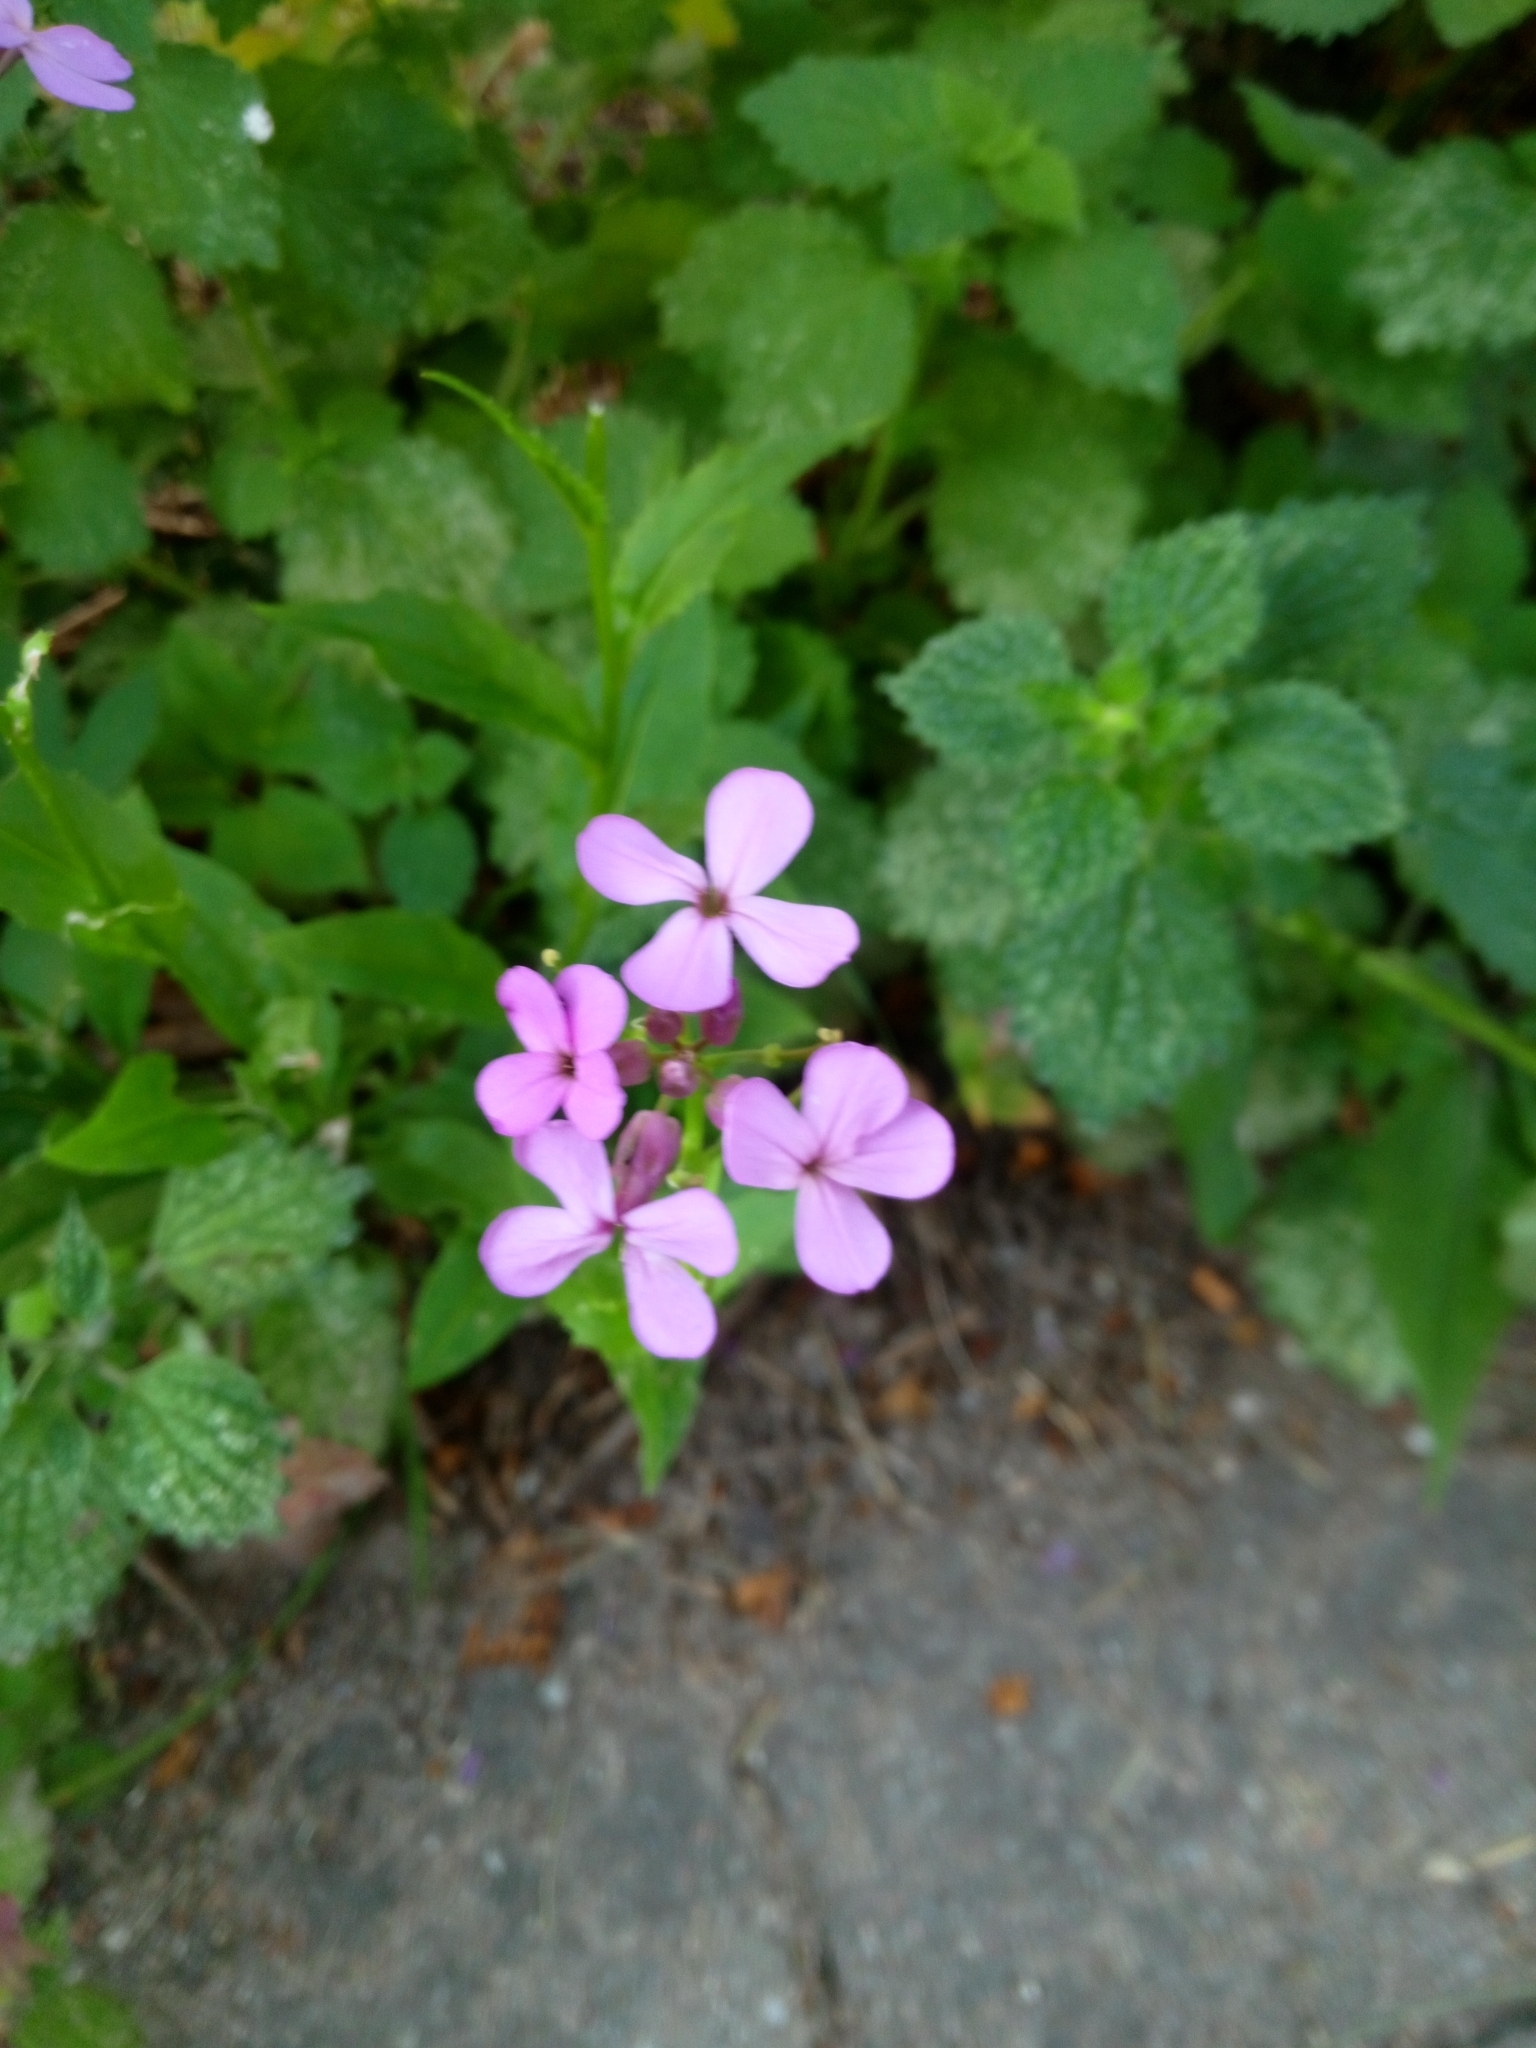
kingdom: Plantae
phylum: Tracheophyta
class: Magnoliopsida
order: Brassicales
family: Brassicaceae
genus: Hesperis
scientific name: Hesperis matronalis
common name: Dame's-violet
